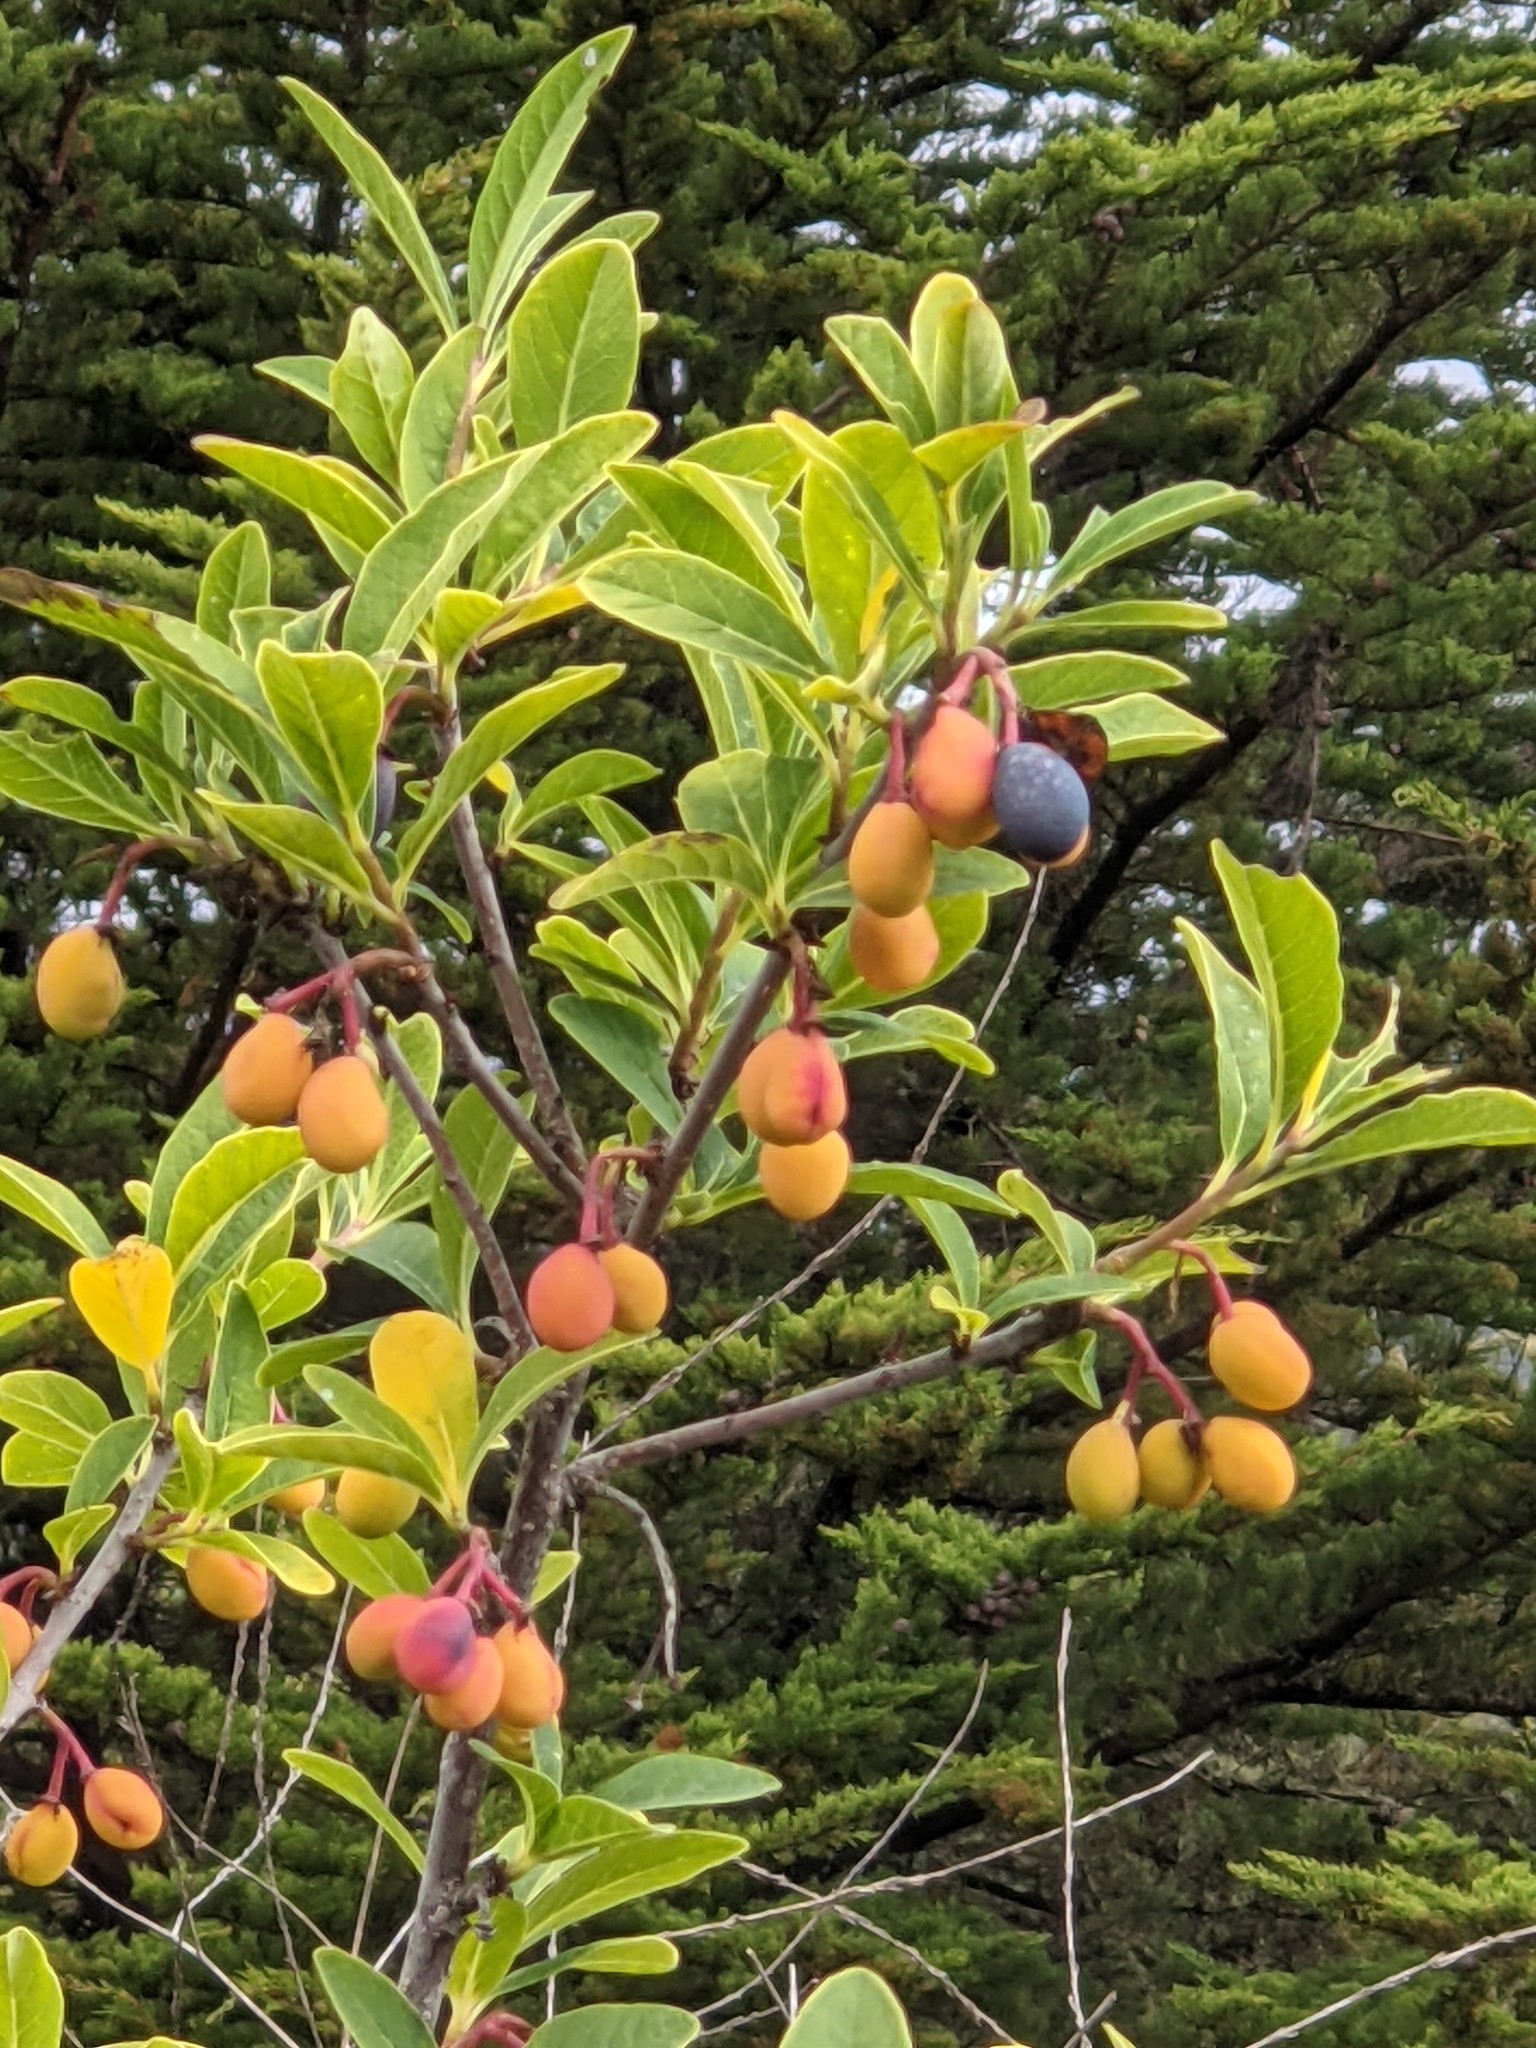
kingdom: Plantae
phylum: Tracheophyta
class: Magnoliopsida
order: Rosales
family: Rosaceae
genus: Oemleria
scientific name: Oemleria cerasiformis
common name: Osoberry
